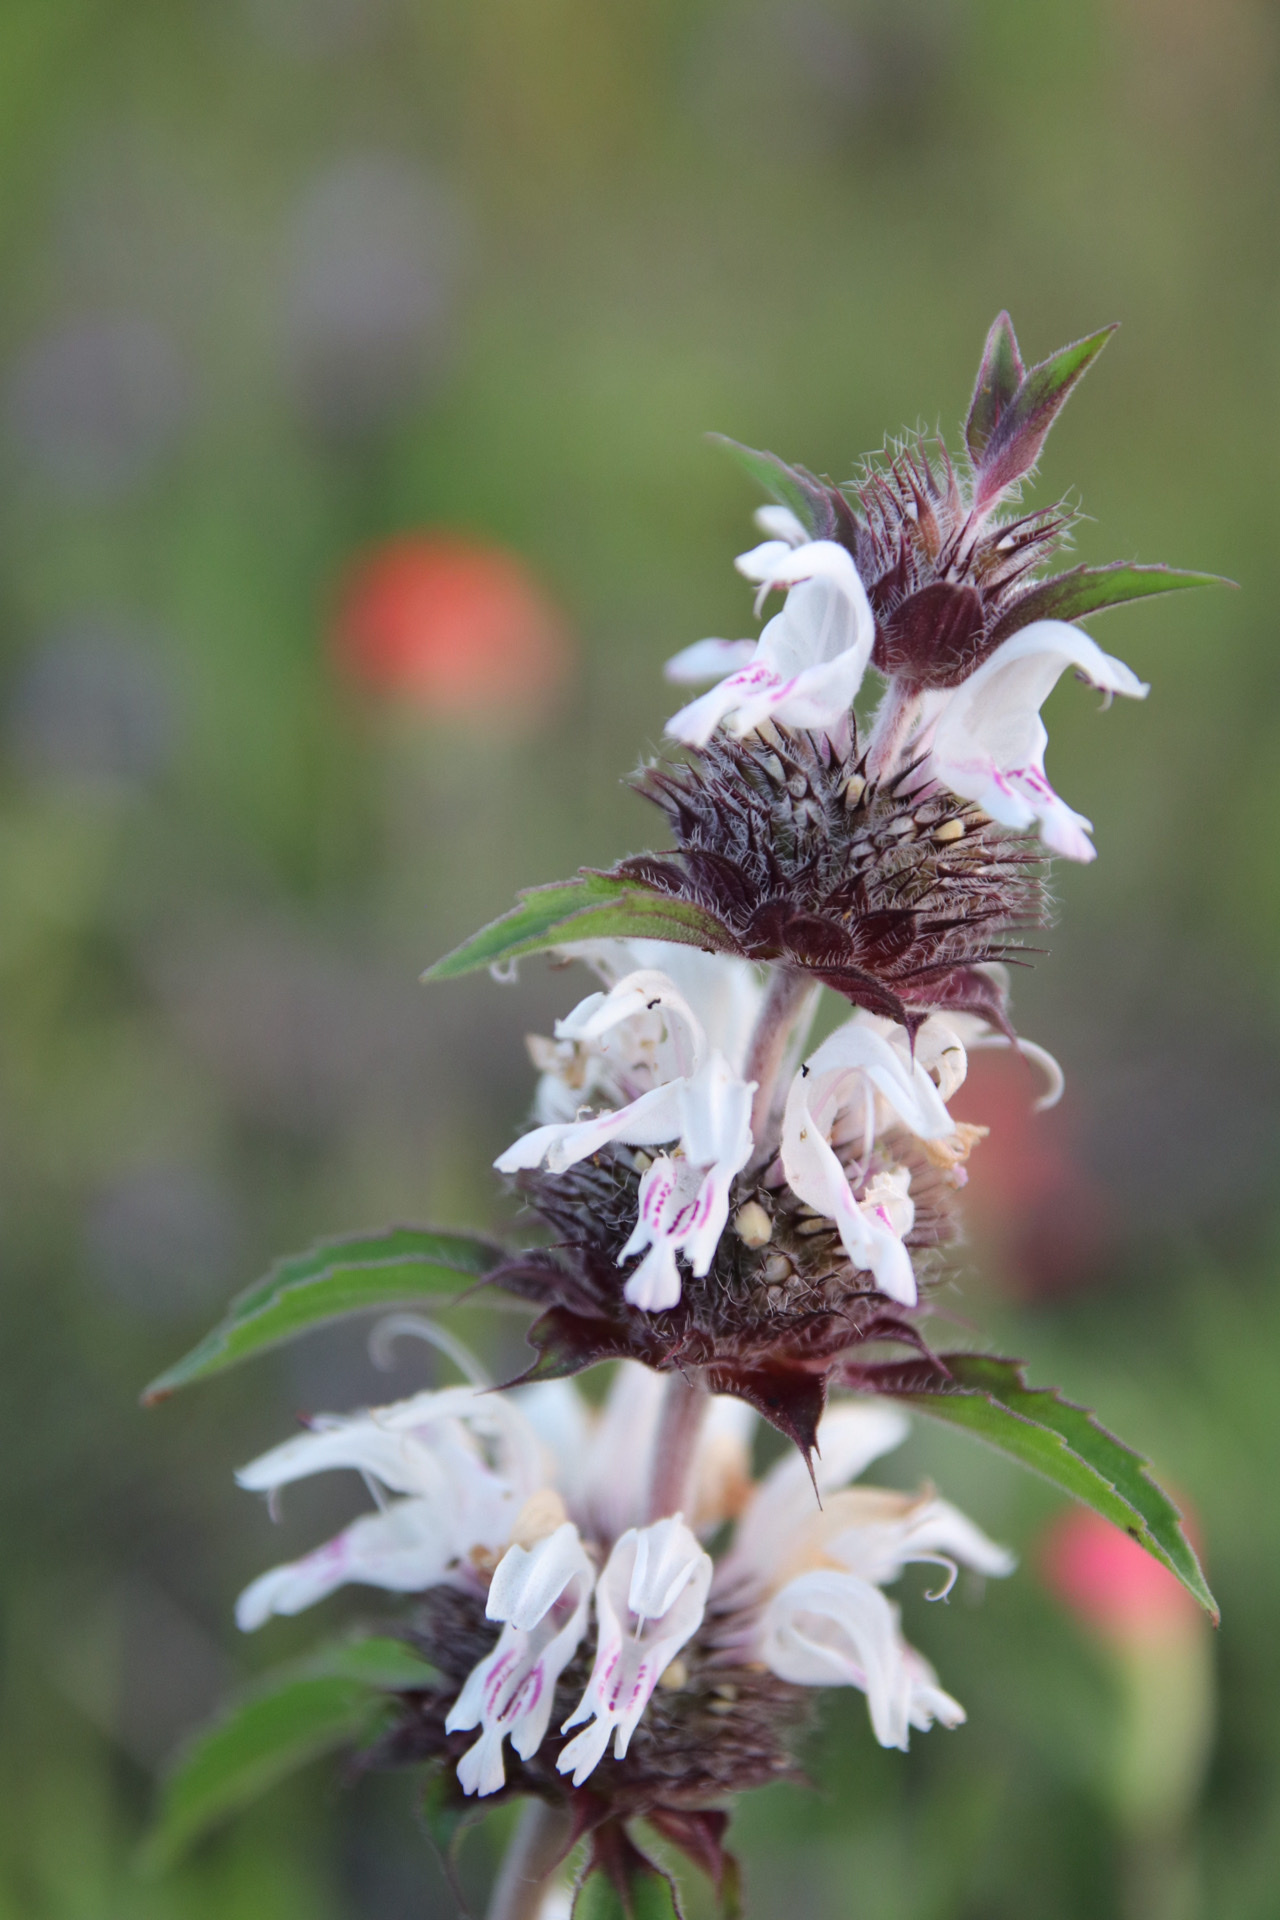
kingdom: Plantae
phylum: Tracheophyta
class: Magnoliopsida
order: Lamiales
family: Lamiaceae
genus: Monarda
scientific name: Monarda clinopodioides
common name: Basil beebalm
